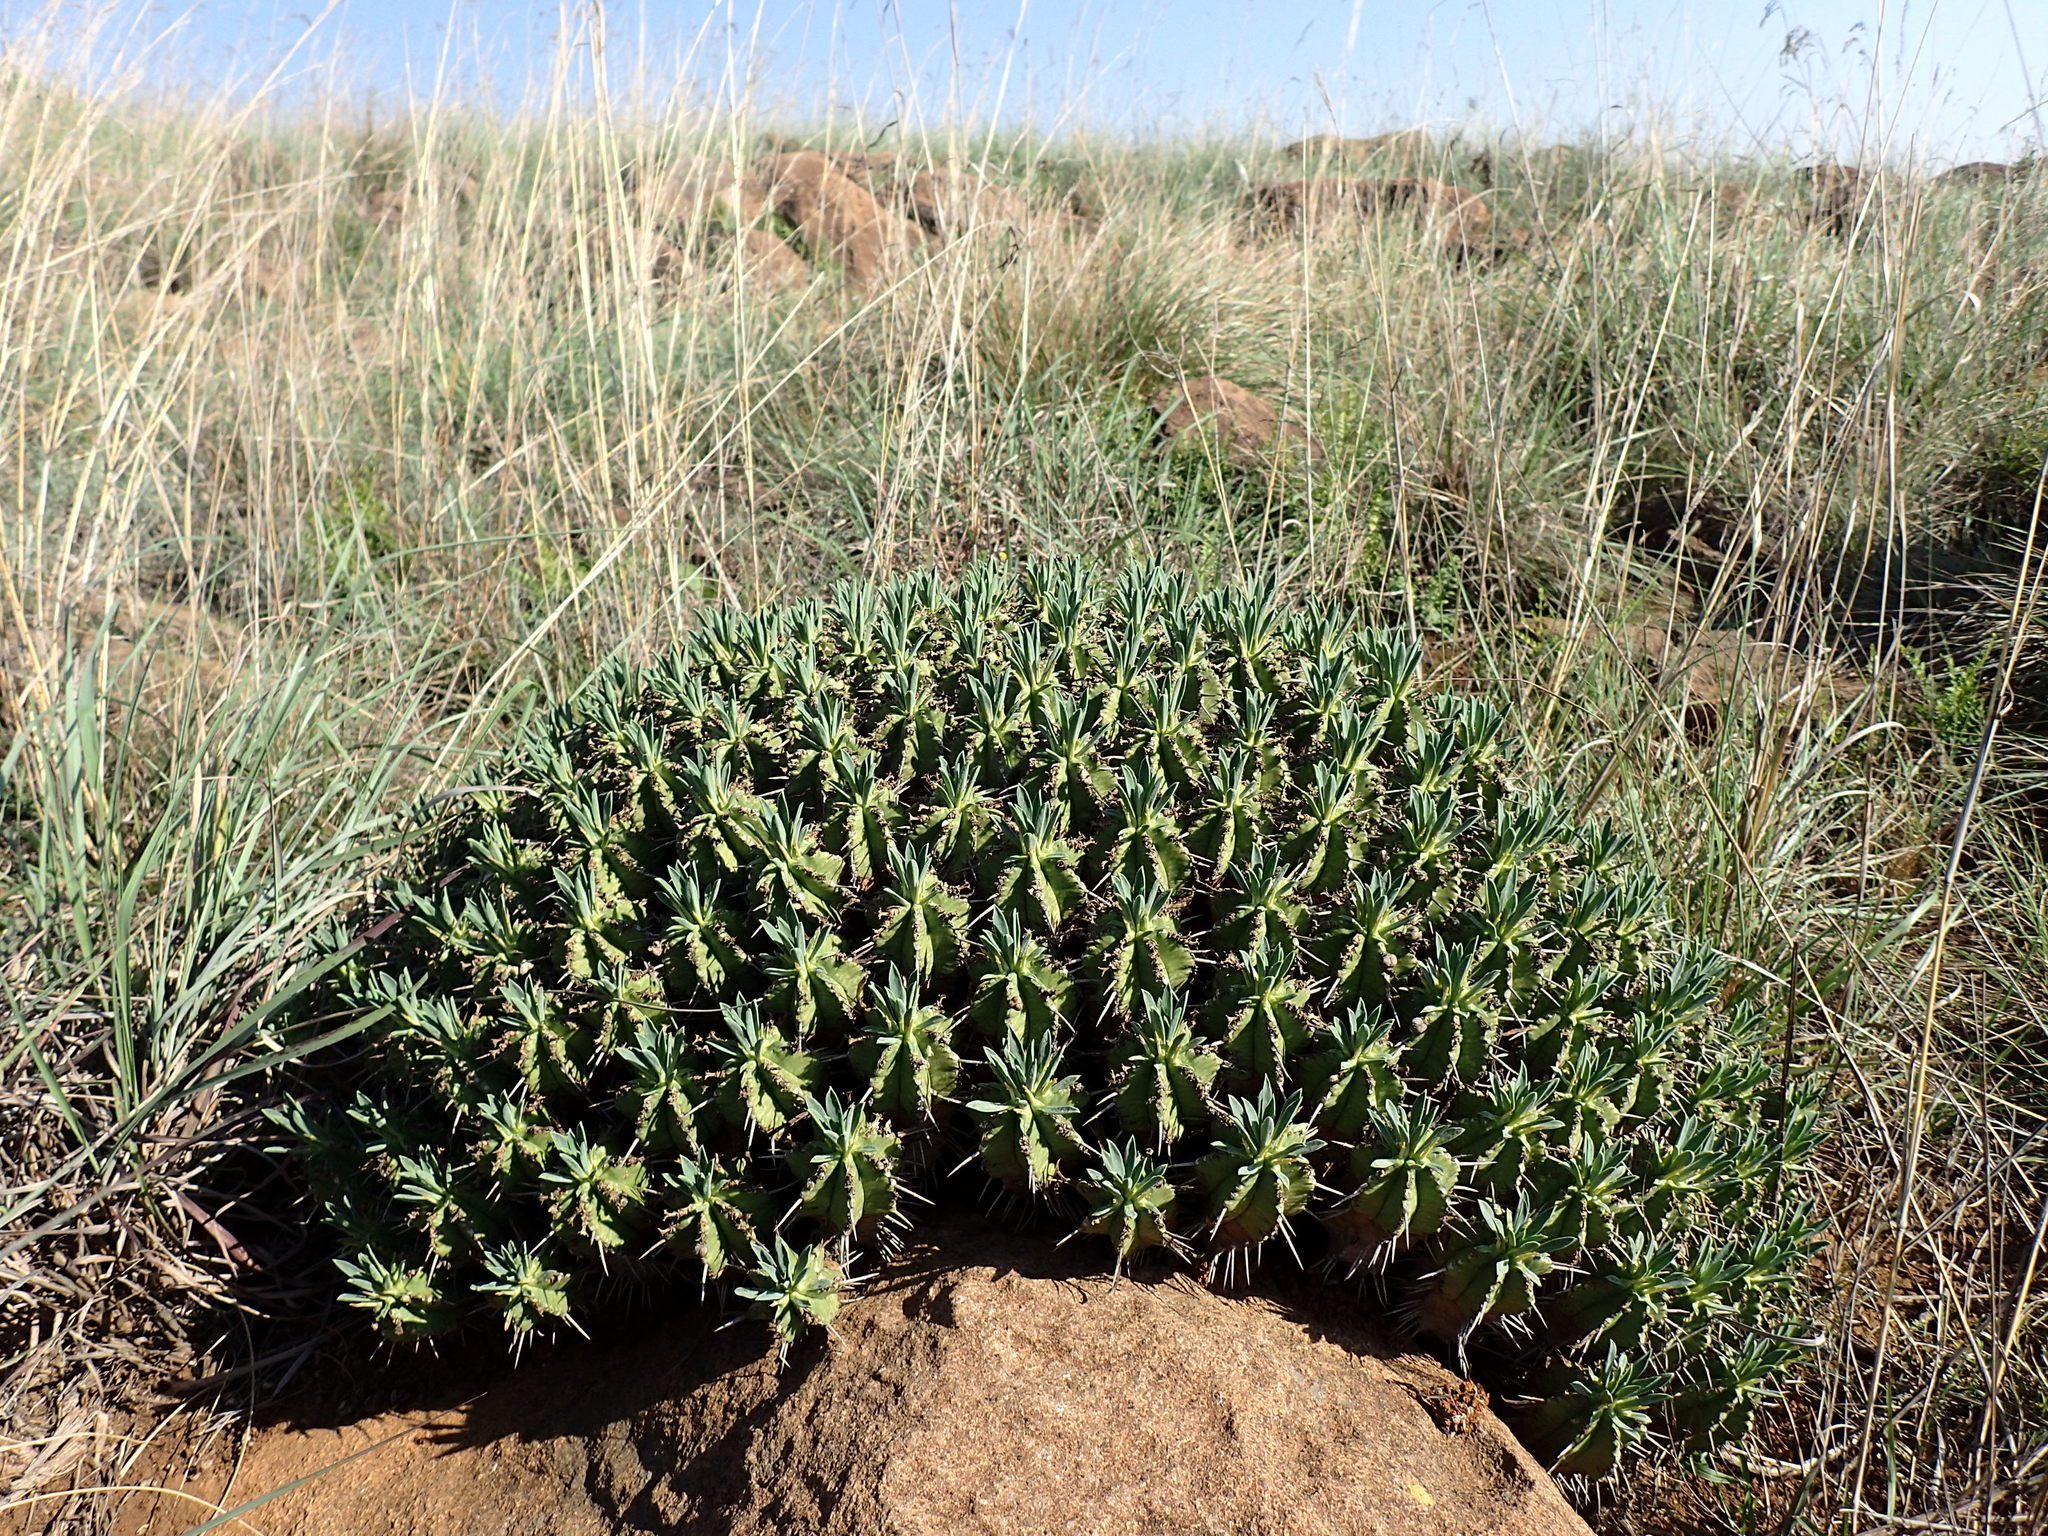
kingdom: Plantae
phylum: Tracheophyta
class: Magnoliopsida
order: Malpighiales
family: Euphorbiaceae
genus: Euphorbia
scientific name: Euphorbia pulvinata
